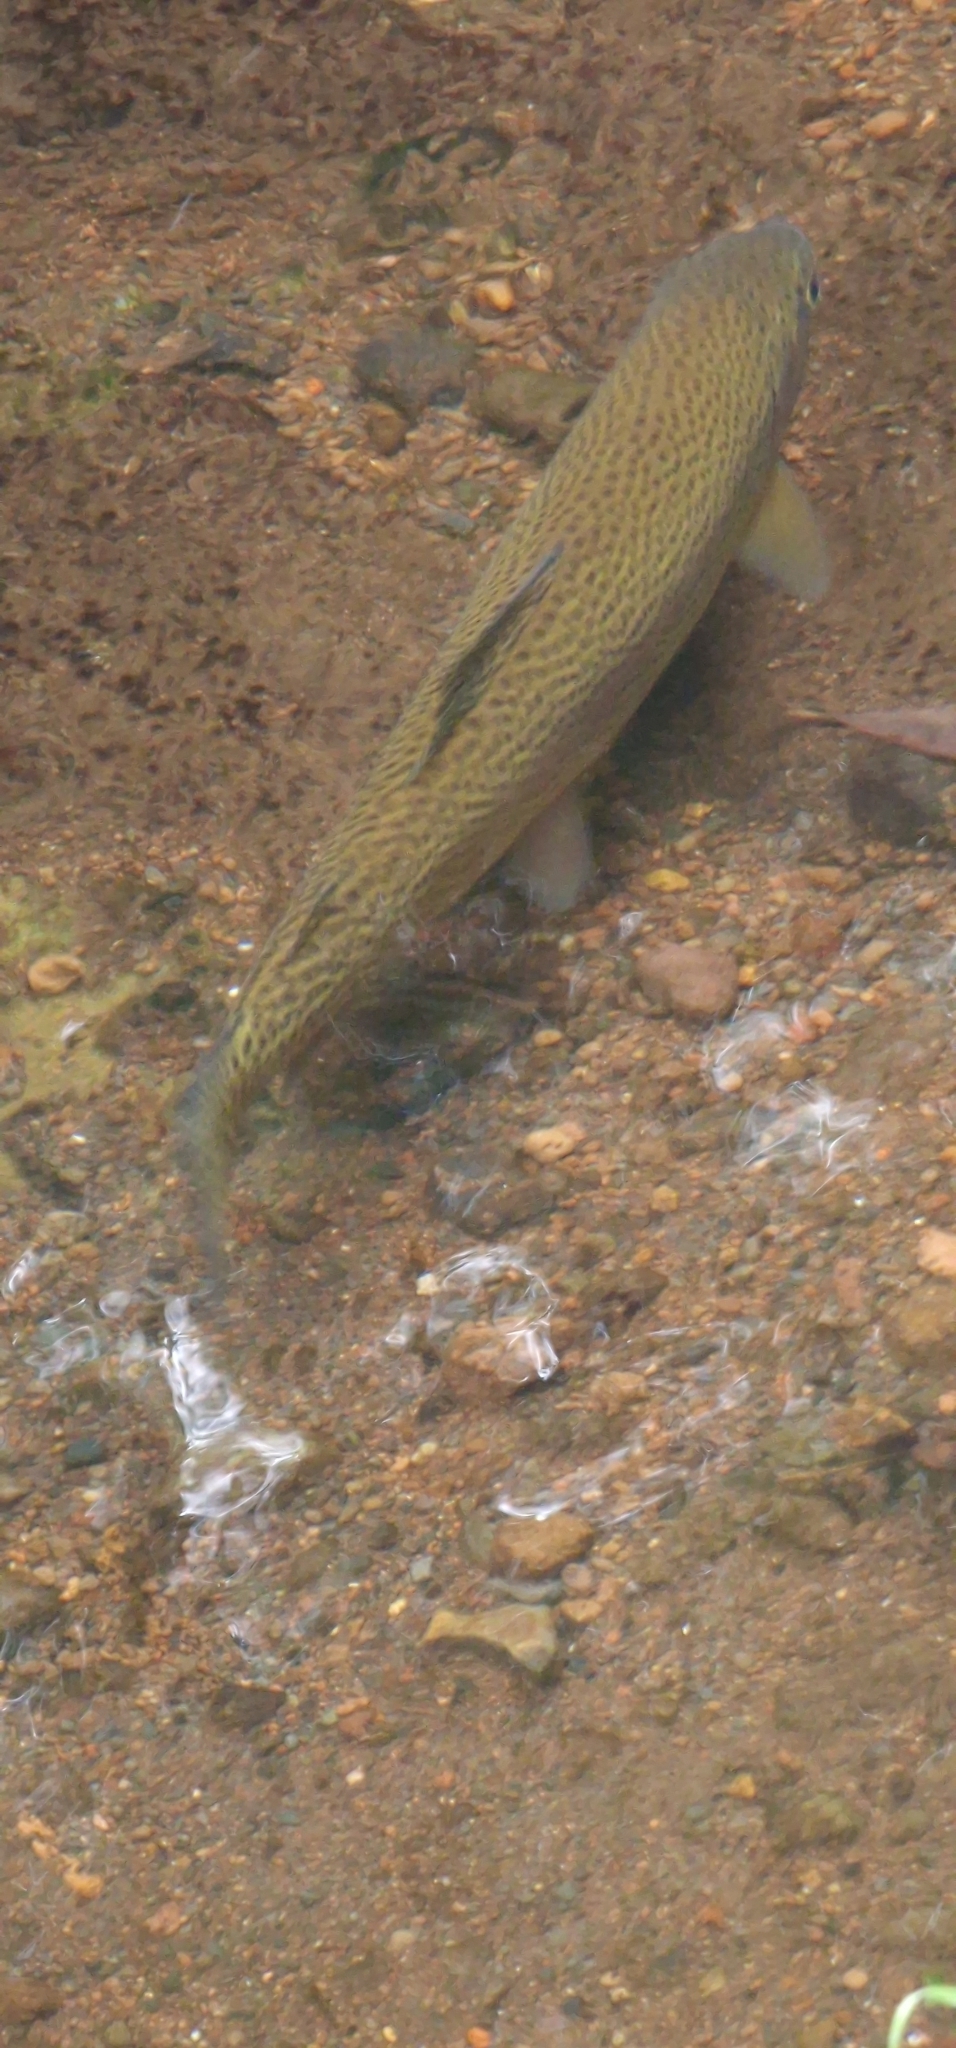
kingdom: Animalia
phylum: Chordata
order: Salmoniformes
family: Salmonidae
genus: Oncorhynchus
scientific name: Oncorhynchus mykiss
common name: Rainbow trout
